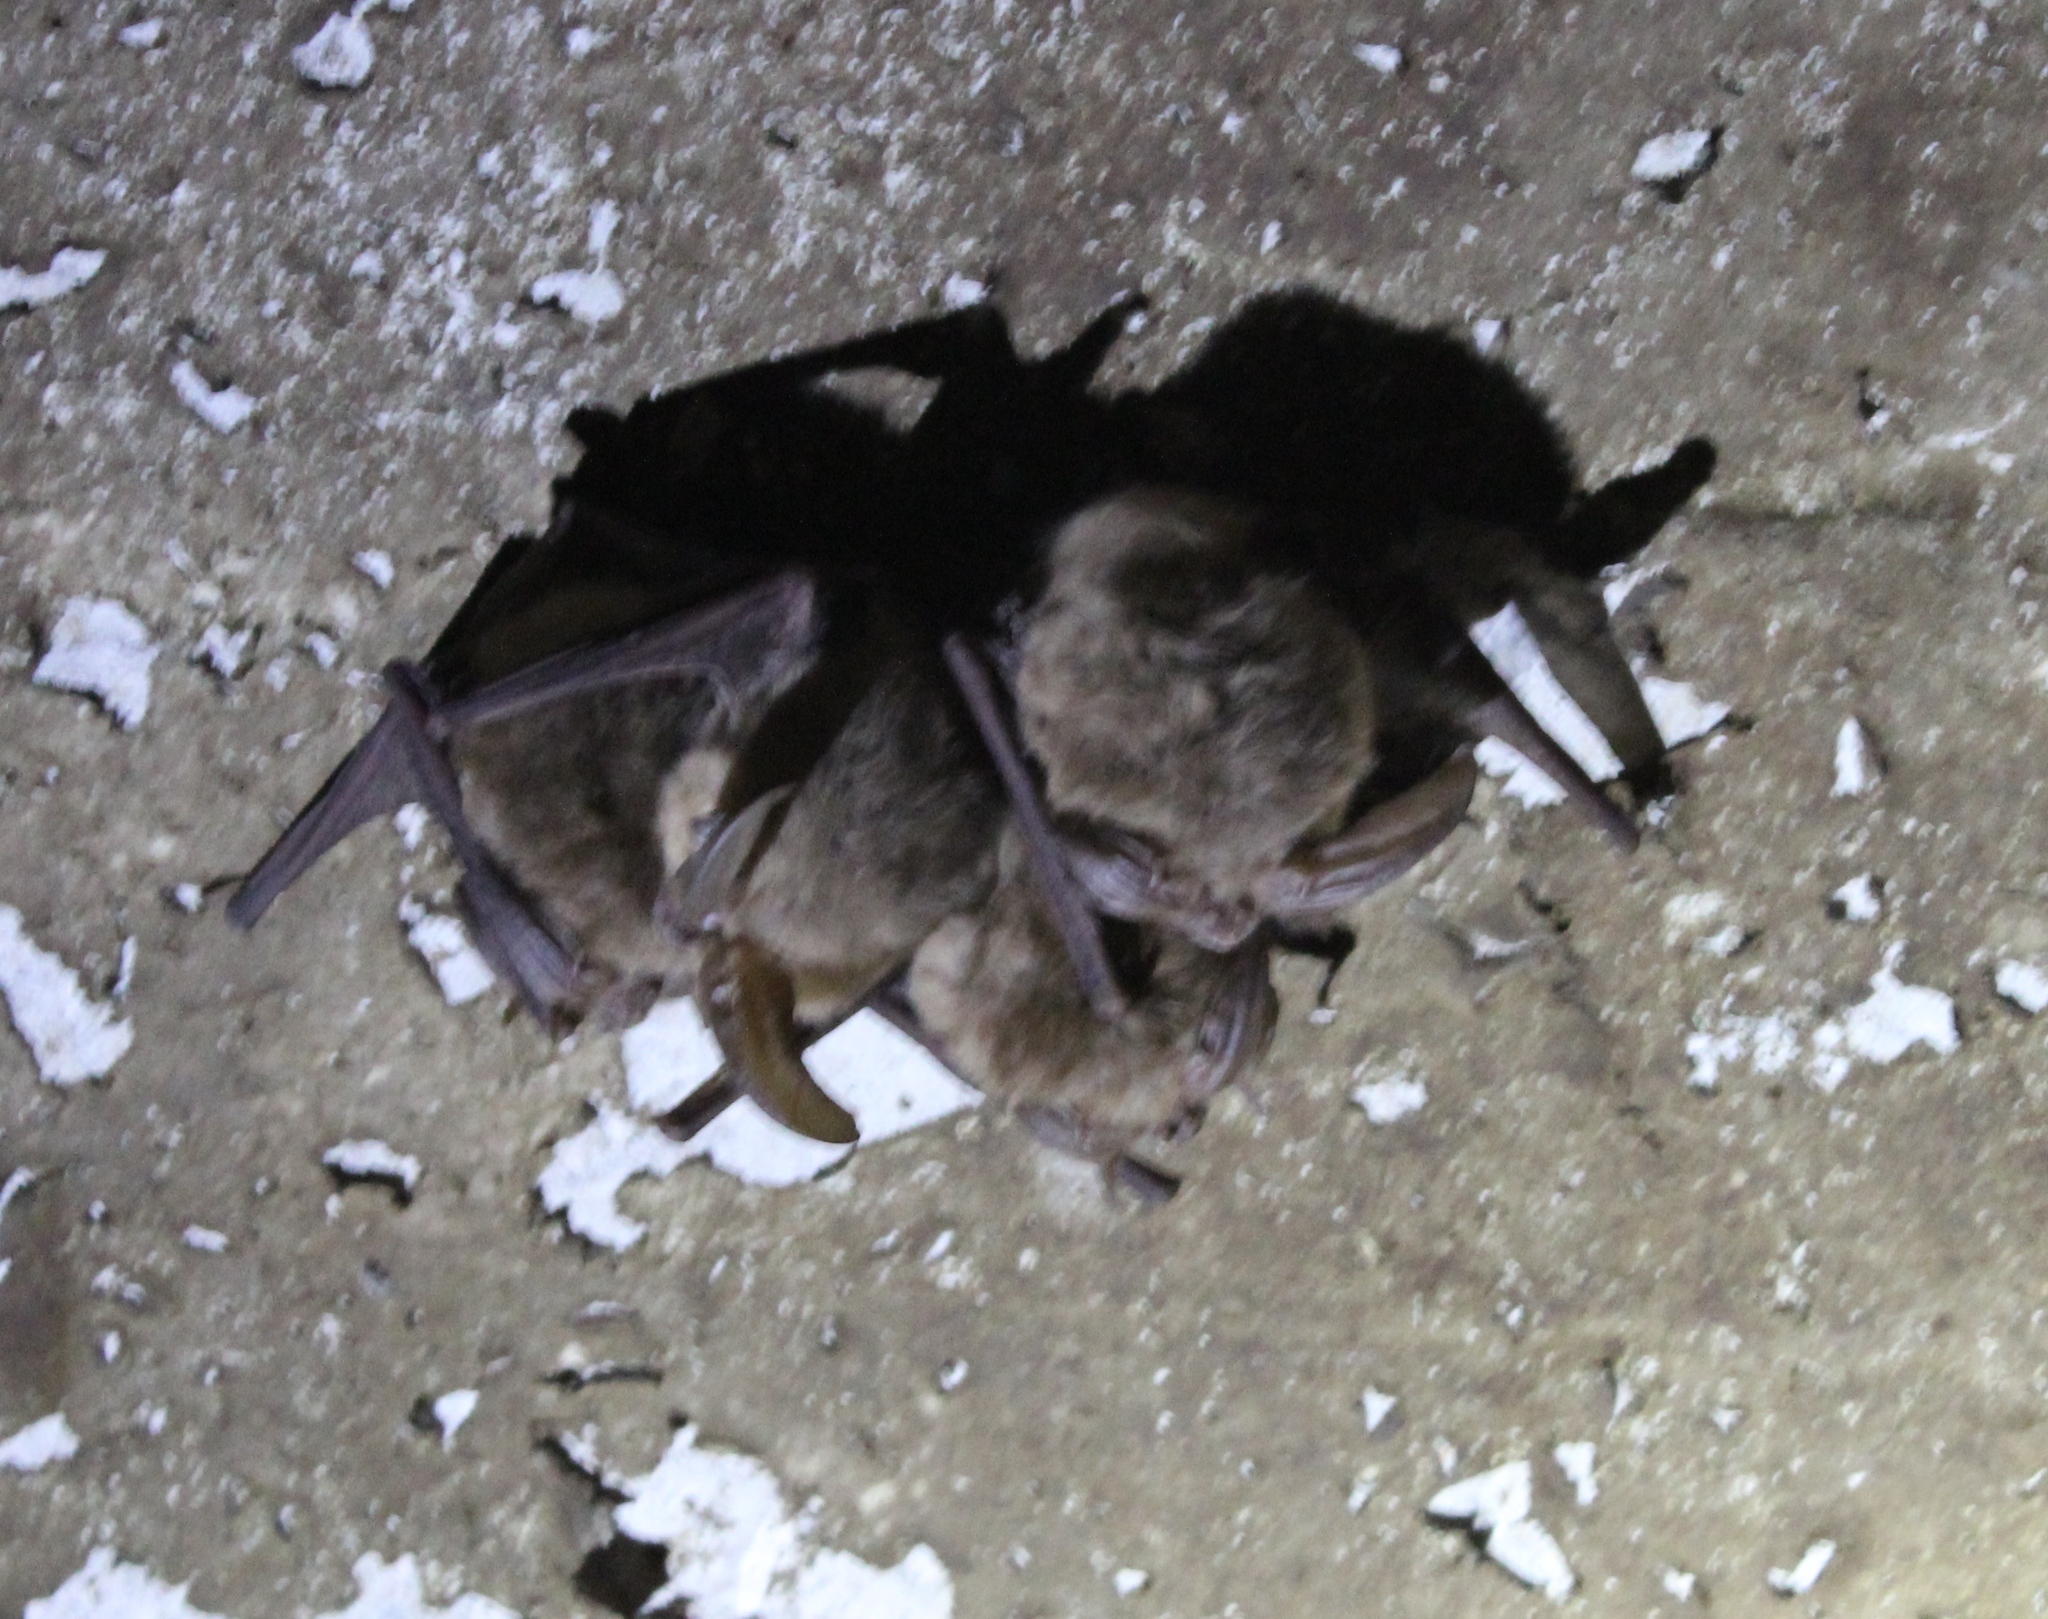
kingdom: Animalia
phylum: Chordata
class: Mammalia
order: Chiroptera
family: Vespertilionidae
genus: Corynorhinus
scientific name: Corynorhinus townsendii
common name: Townsend's big-eared bat
